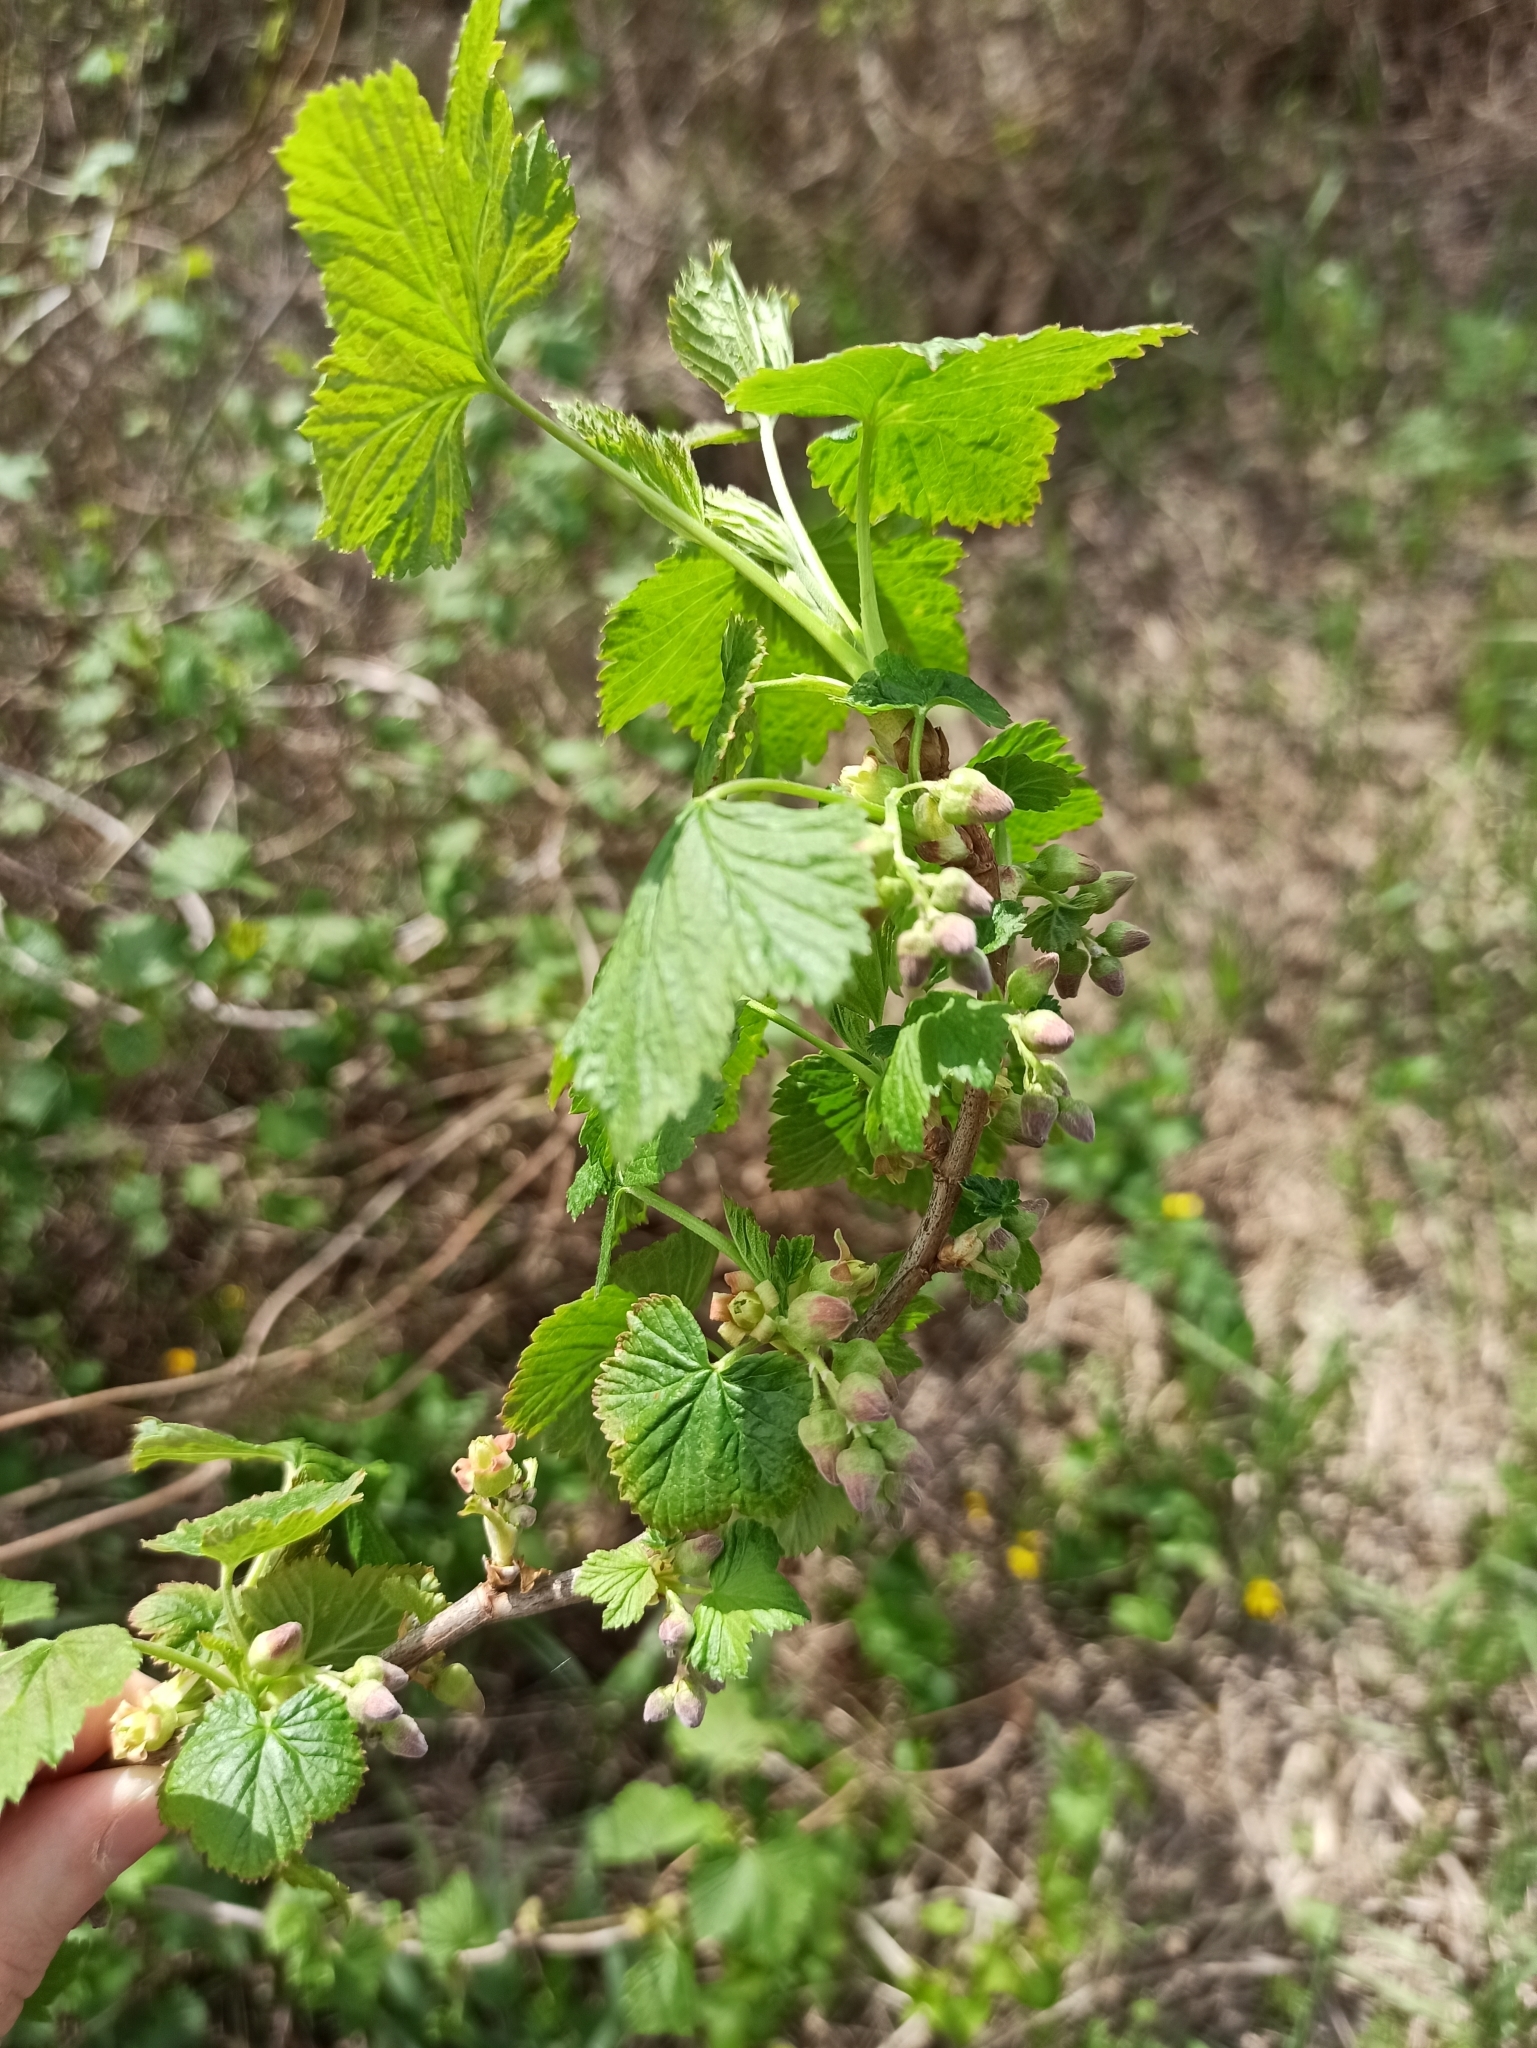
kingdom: Plantae
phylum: Tracheophyta
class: Magnoliopsida
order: Saxifragales
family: Grossulariaceae
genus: Ribes
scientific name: Ribes nigrum
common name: Black currant
